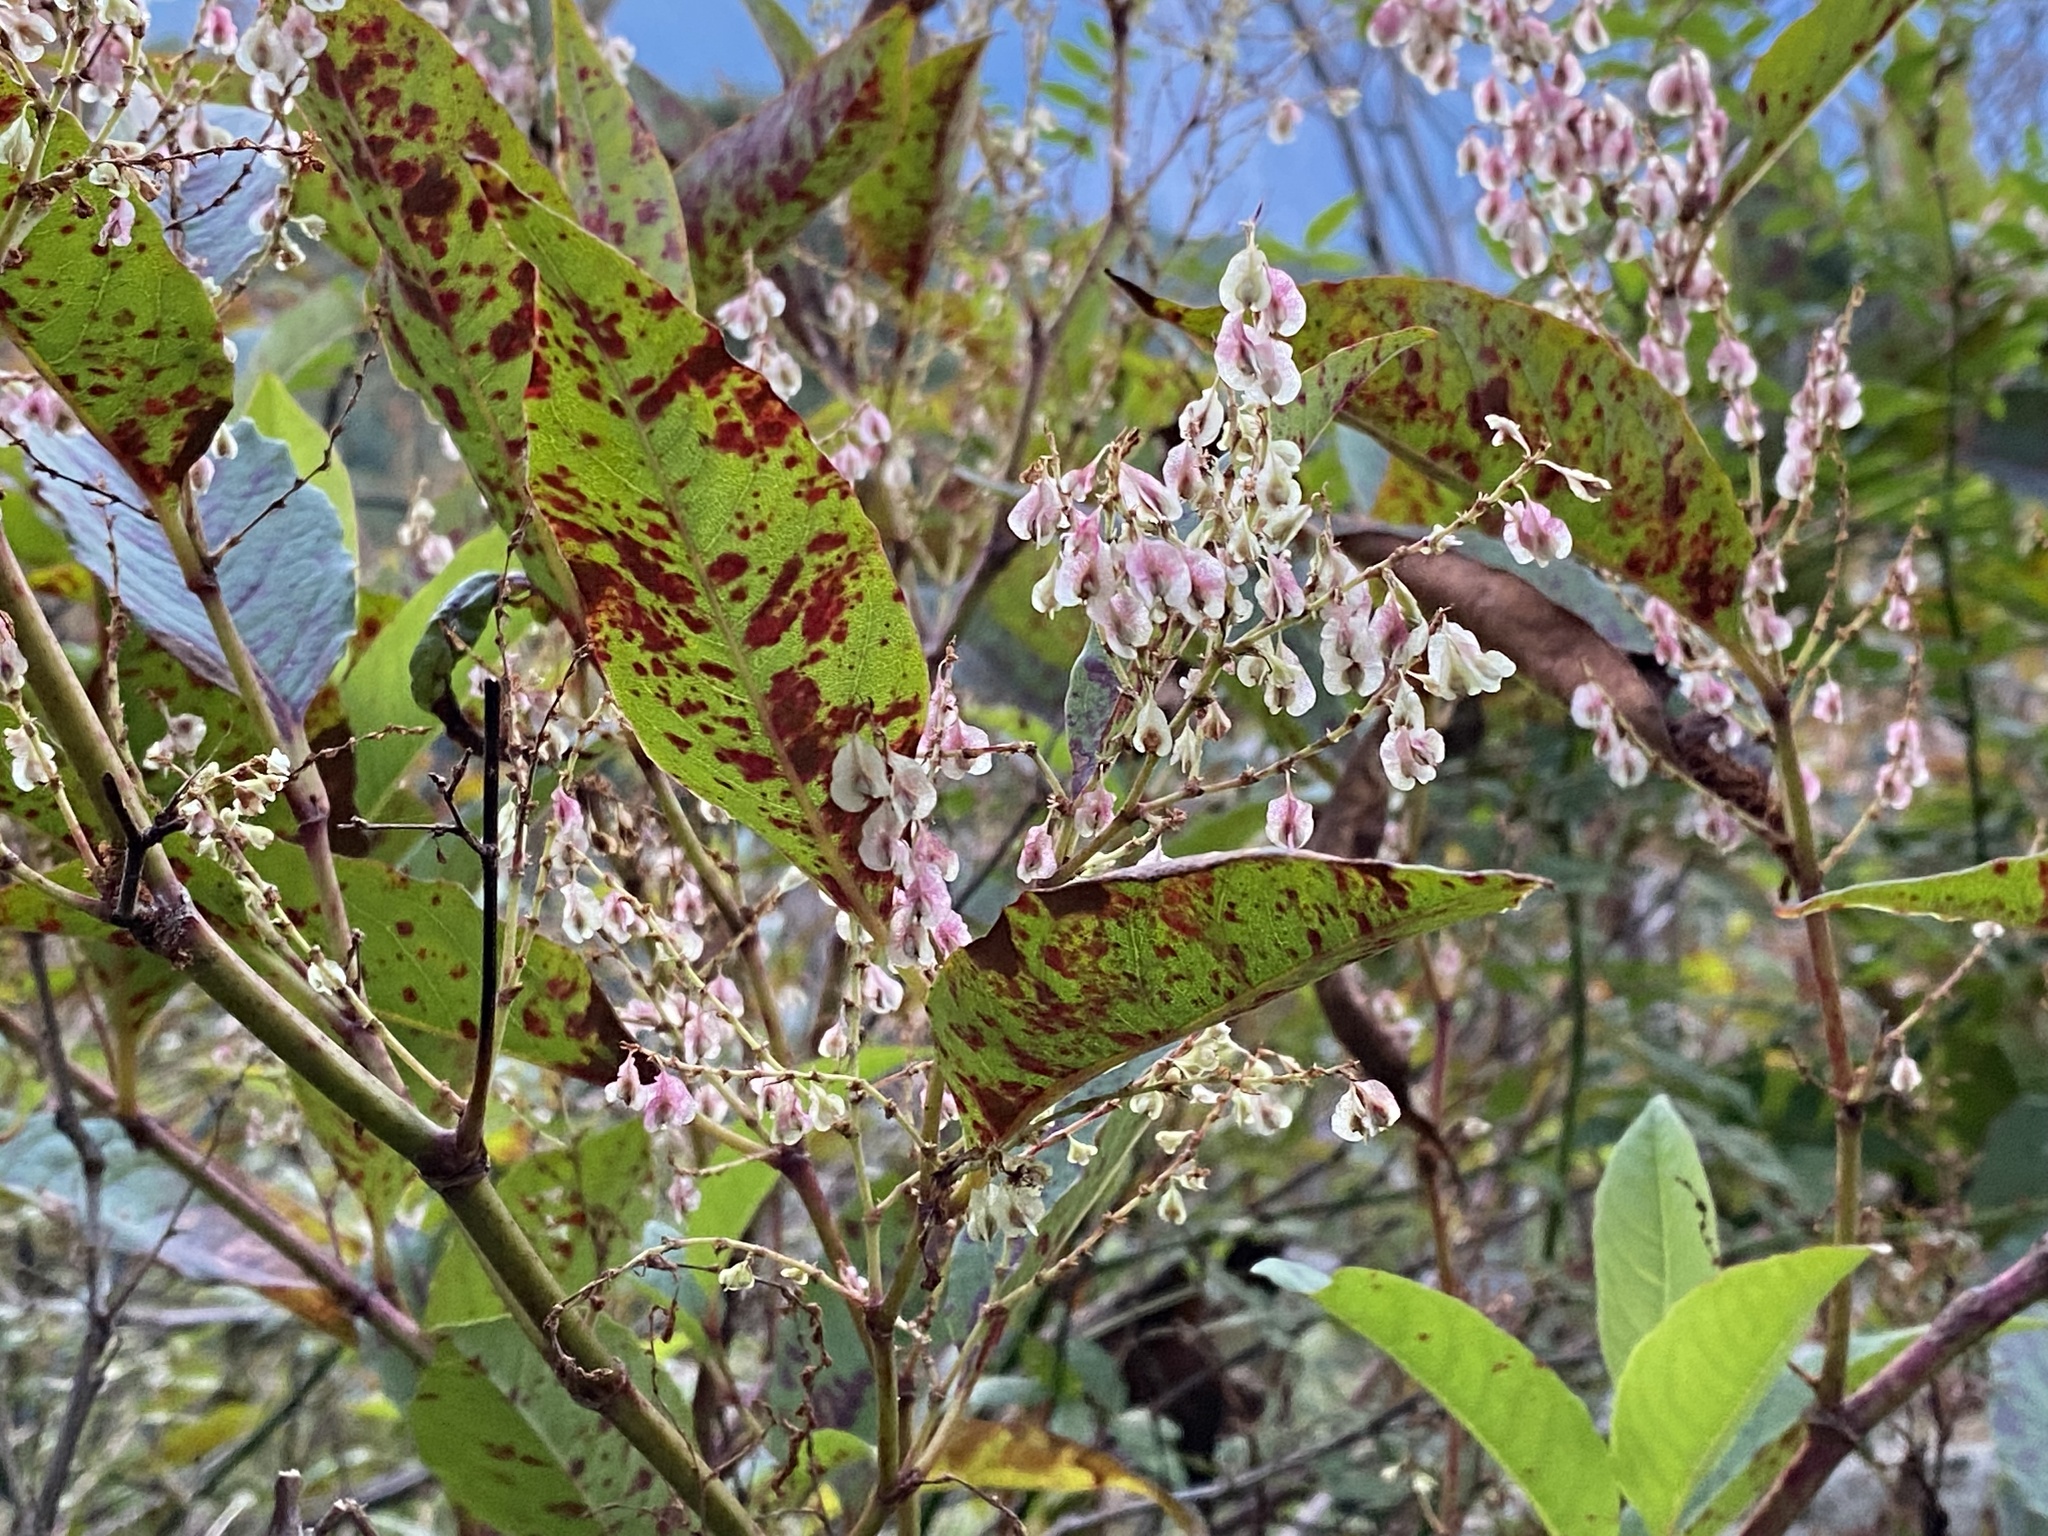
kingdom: Plantae
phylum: Tracheophyta
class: Magnoliopsida
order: Caryophyllales
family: Polygonaceae
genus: Reynoutria
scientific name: Reynoutria japonica
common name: Japanese knotweed
